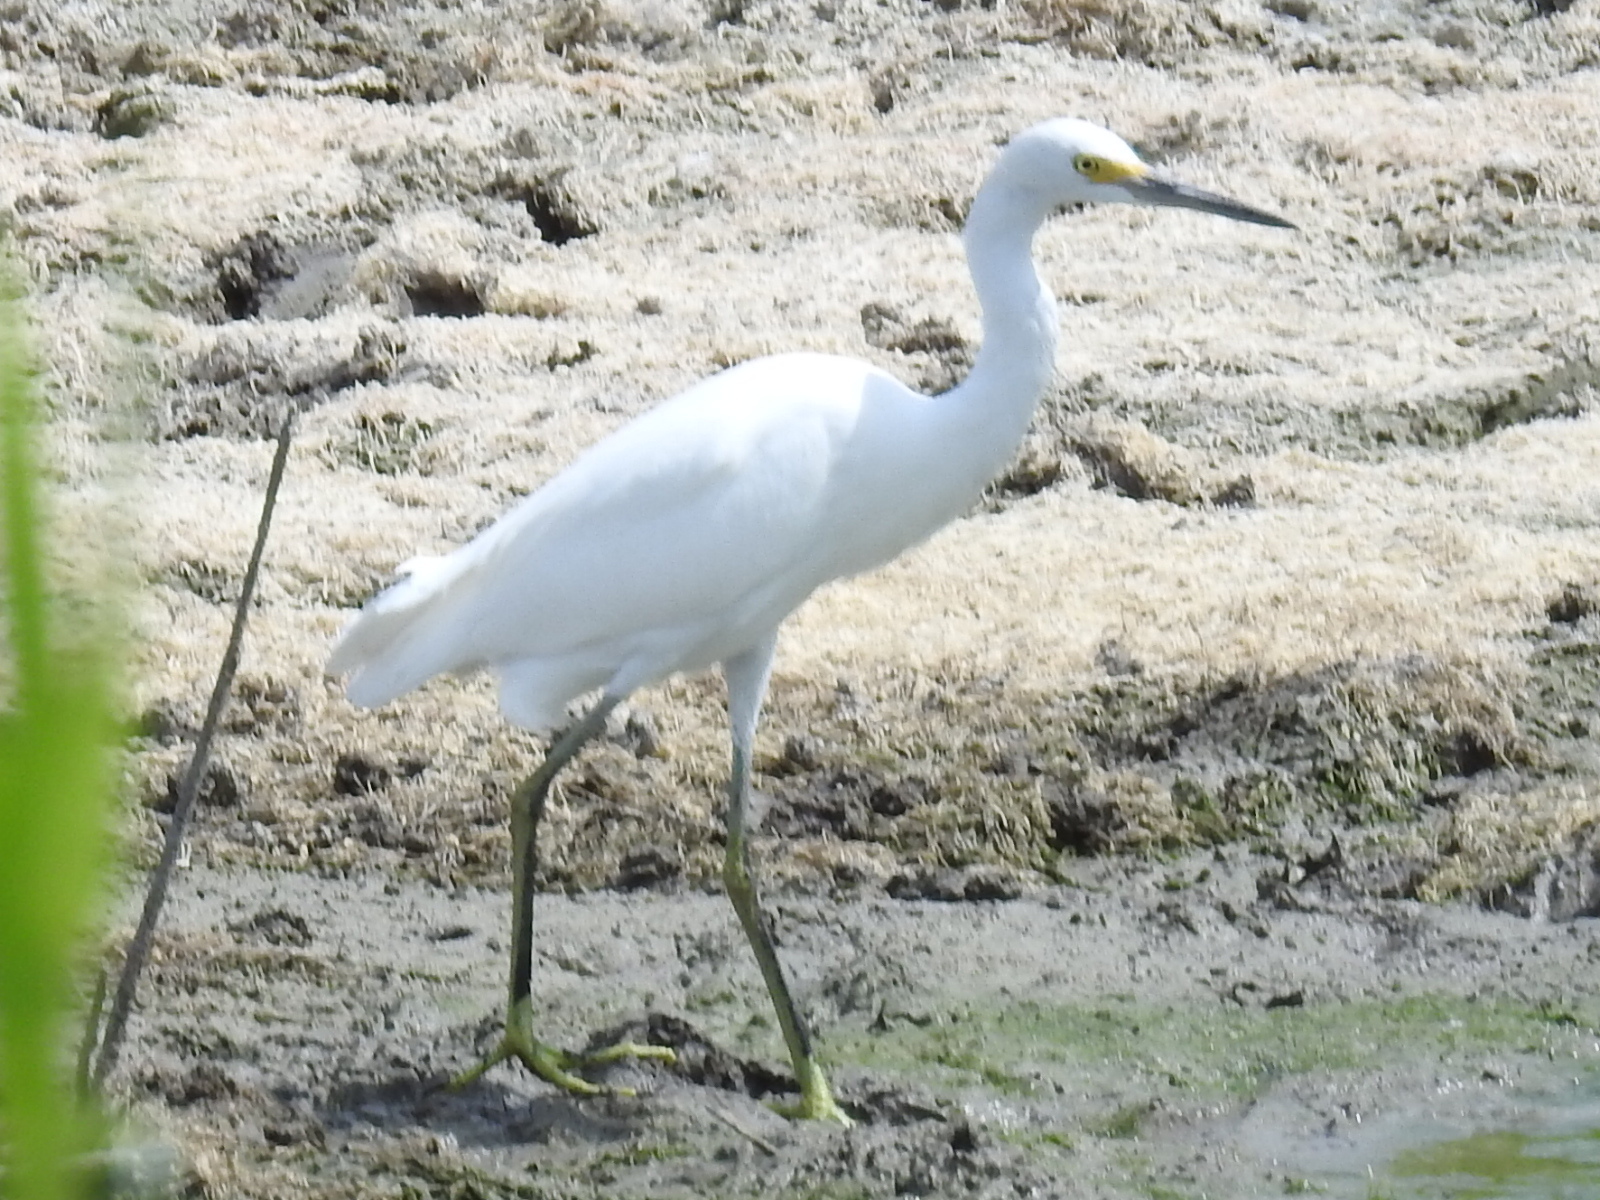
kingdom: Animalia
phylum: Chordata
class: Aves
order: Pelecaniformes
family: Ardeidae
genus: Egretta
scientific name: Egretta thula
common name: Snowy egret
